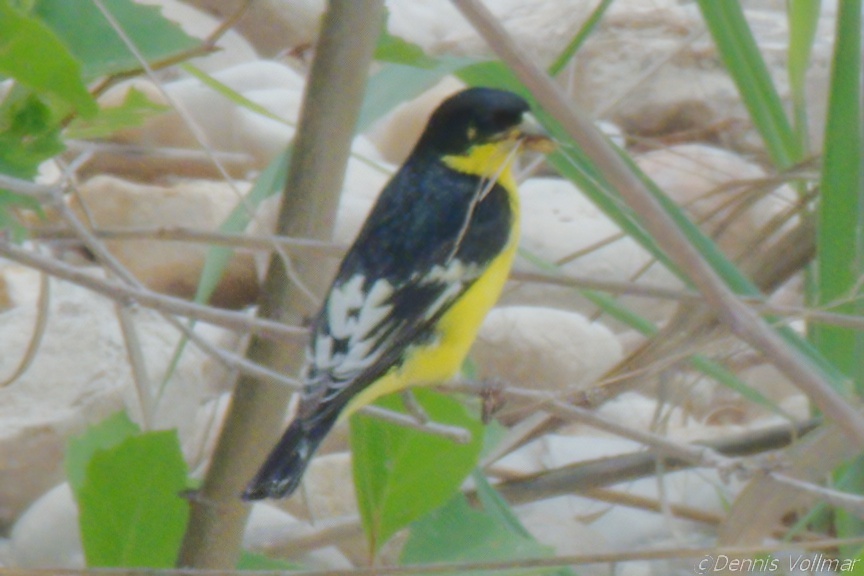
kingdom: Animalia
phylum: Chordata
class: Aves
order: Passeriformes
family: Fringillidae
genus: Spinus
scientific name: Spinus psaltria
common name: Lesser goldfinch
